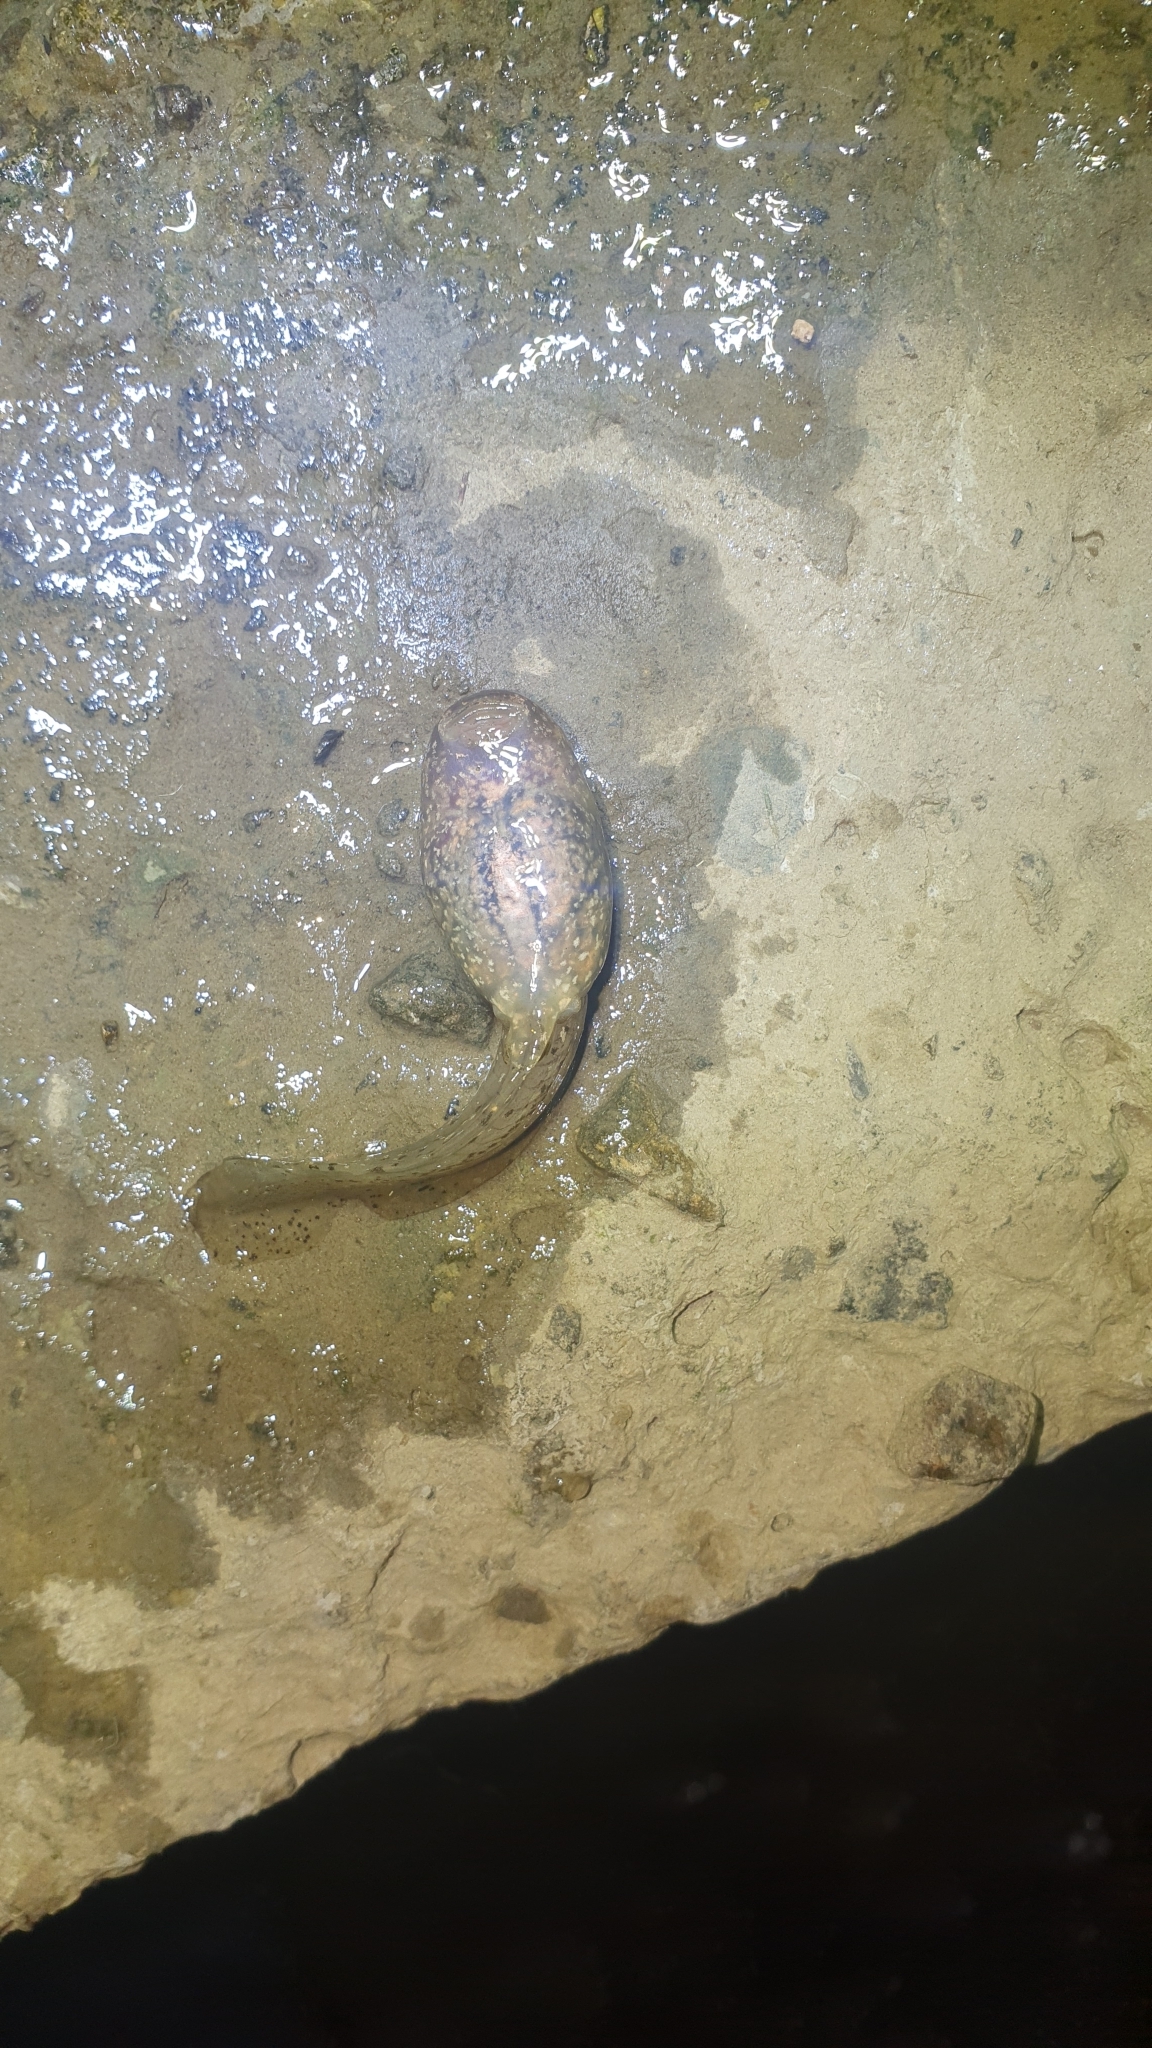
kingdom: Animalia
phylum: Chordata
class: Amphibia
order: Anura
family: Alytidae
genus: Alytes
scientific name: Alytes obstetricans
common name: Midwife toad
